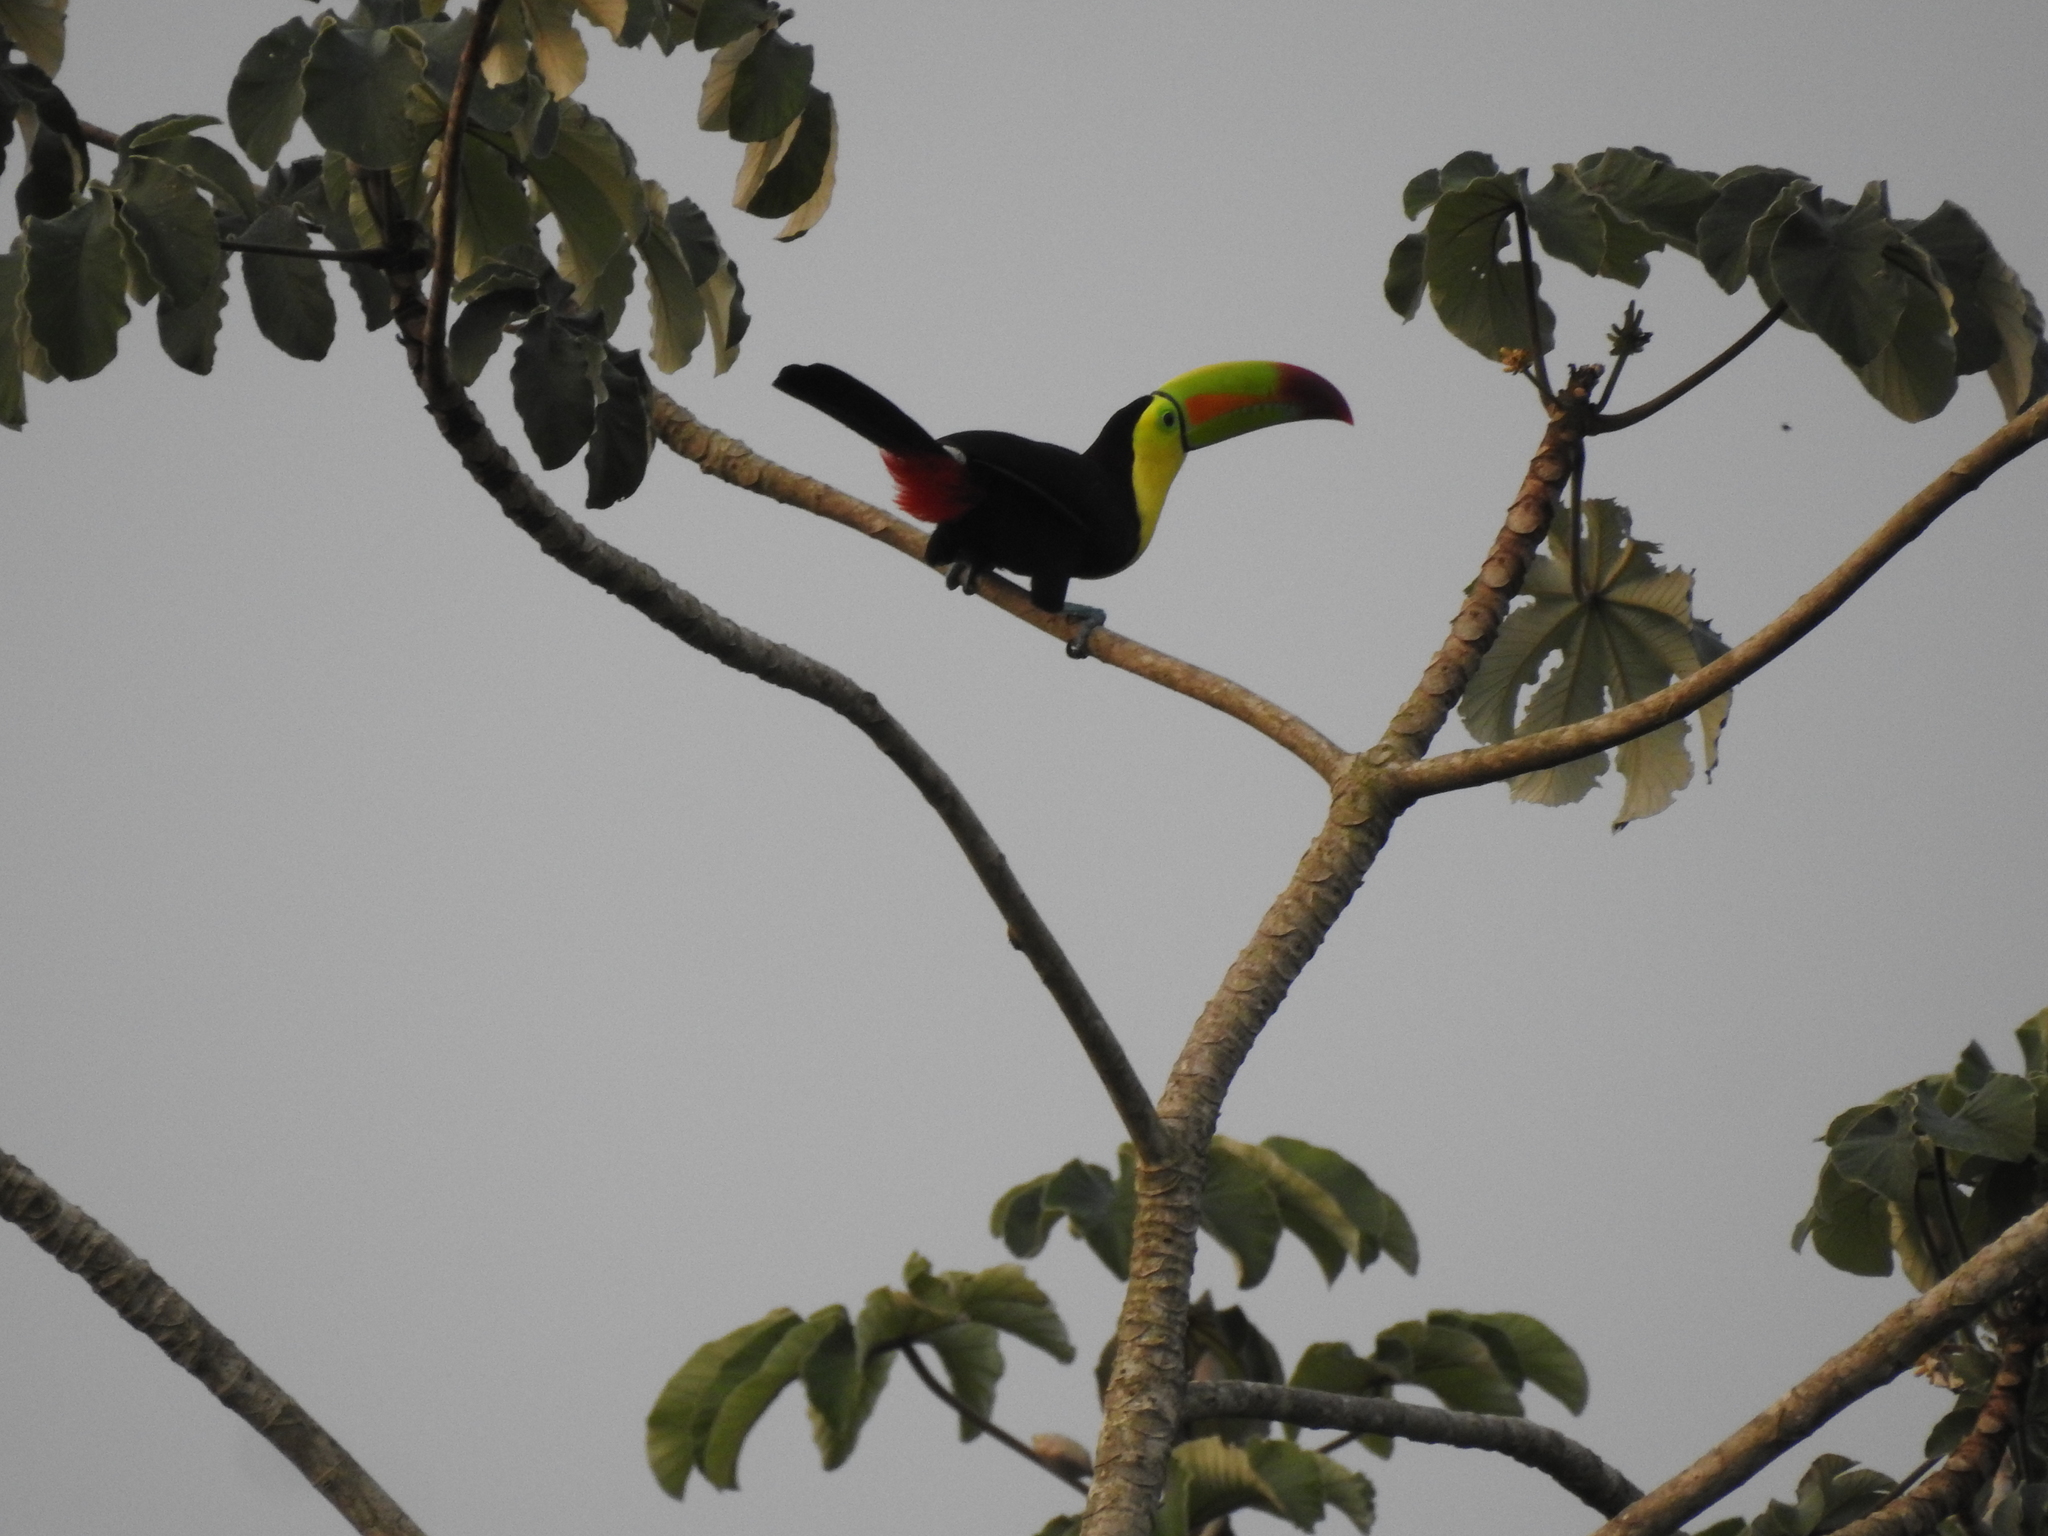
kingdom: Animalia
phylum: Chordata
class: Aves
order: Piciformes
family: Ramphastidae
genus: Ramphastos
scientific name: Ramphastos sulfuratus
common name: Keel-billed toucan
